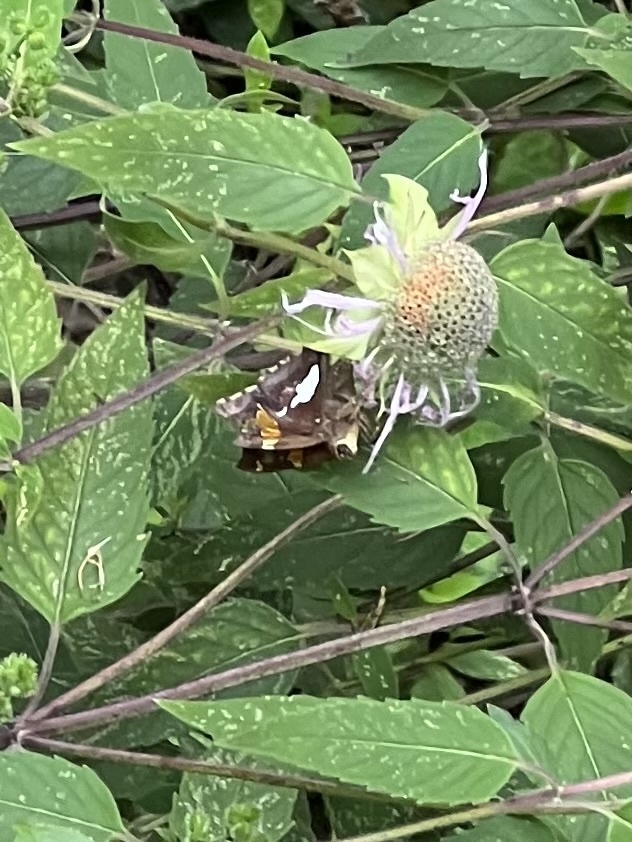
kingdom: Animalia
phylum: Arthropoda
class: Insecta
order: Lepidoptera
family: Hesperiidae
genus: Epargyreus
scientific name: Epargyreus clarus
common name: Silver-spotted skipper
